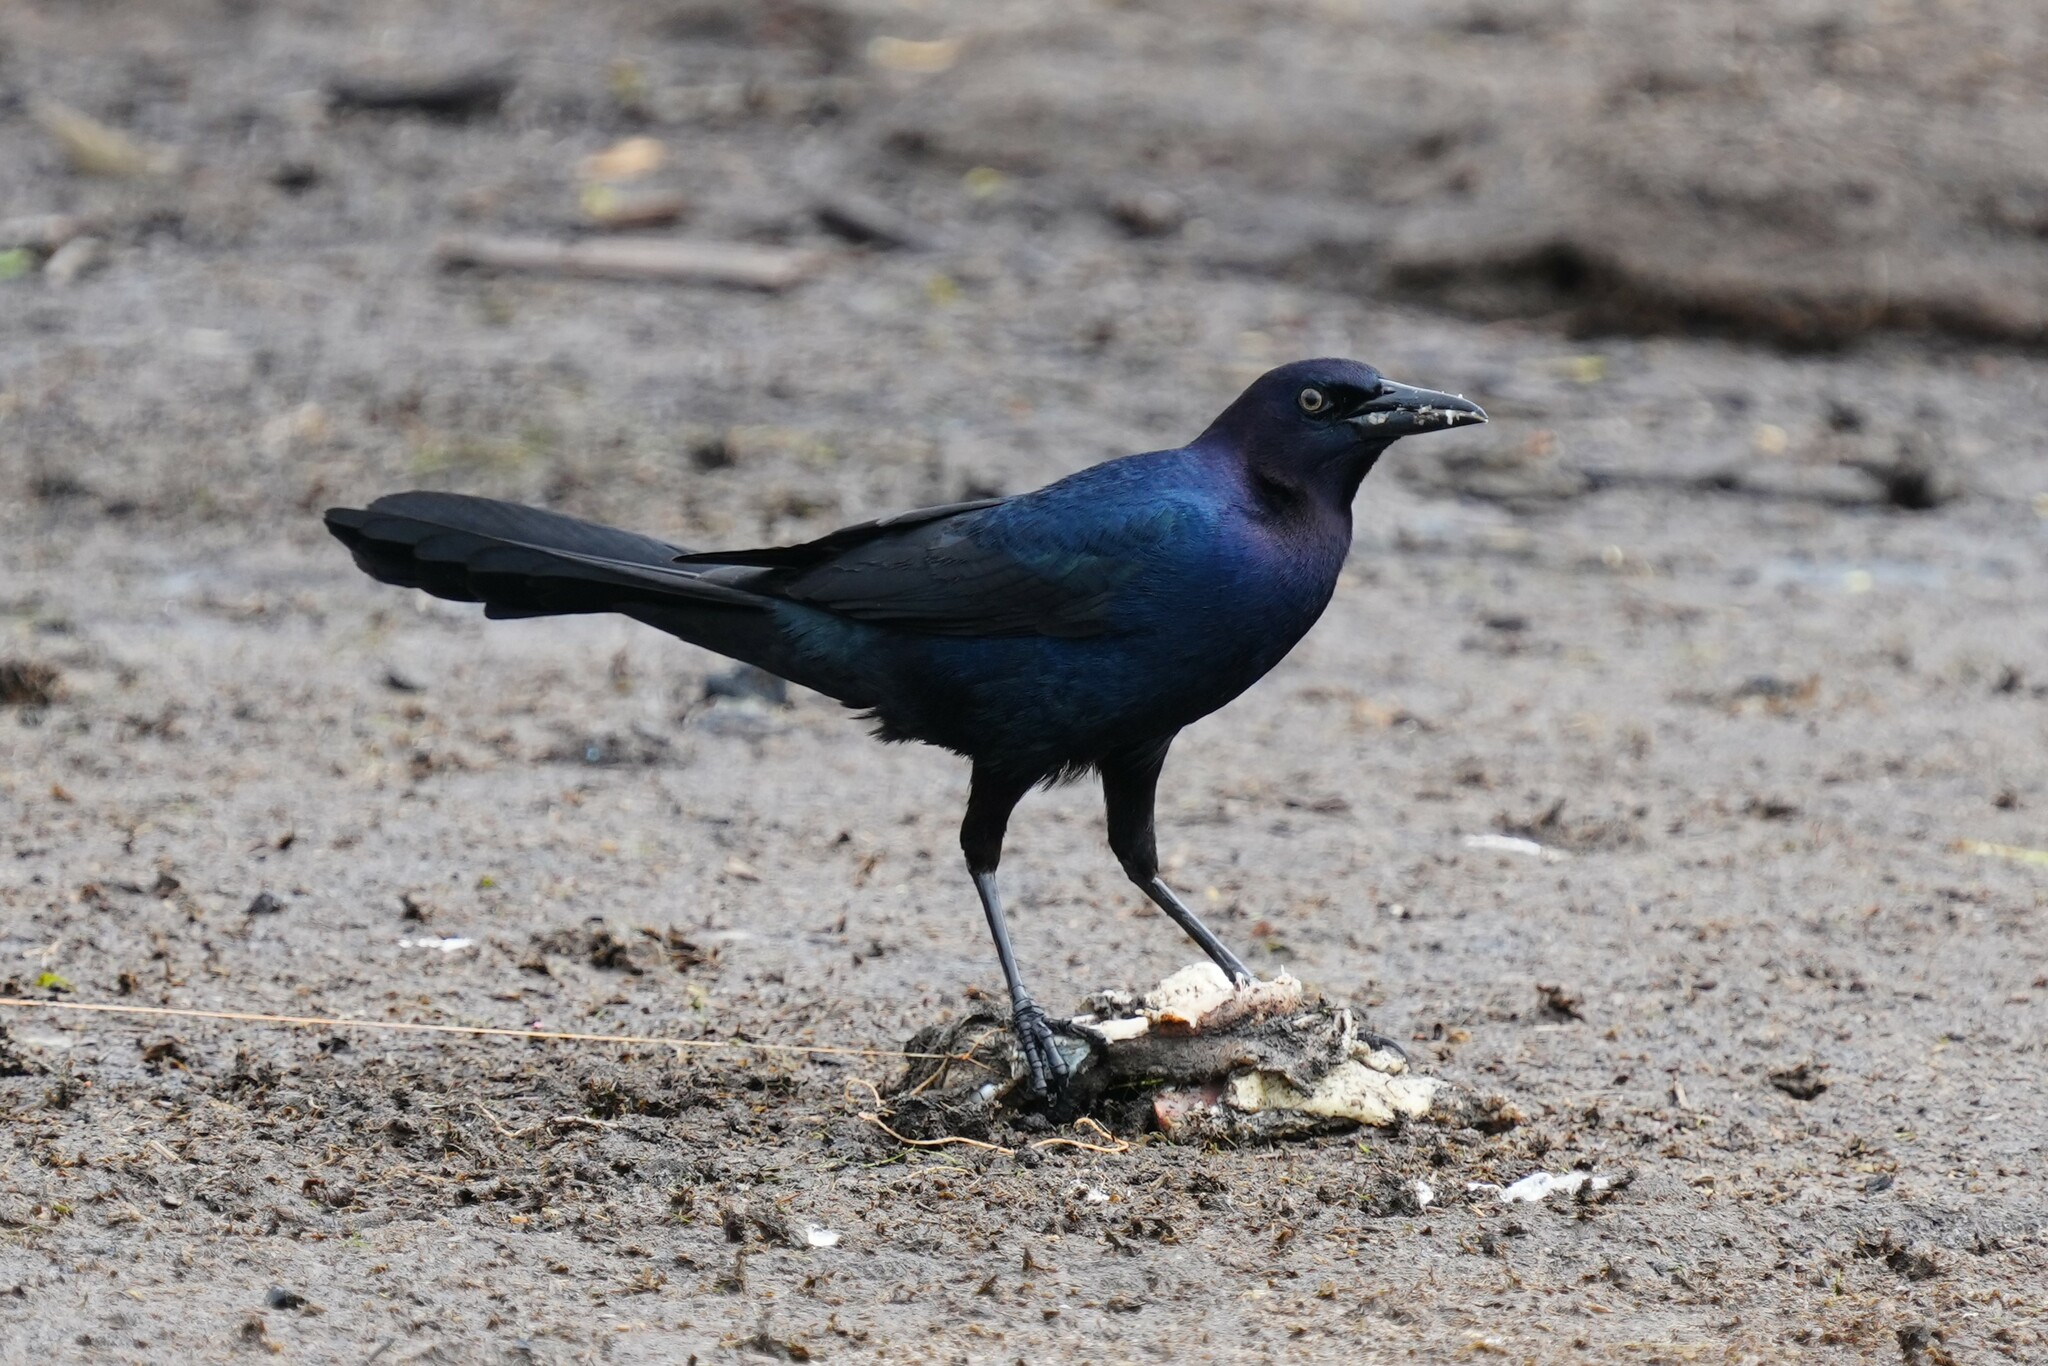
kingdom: Animalia
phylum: Chordata
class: Aves
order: Passeriformes
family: Icteridae
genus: Quiscalus
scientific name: Quiscalus major
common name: Boat-tailed grackle
